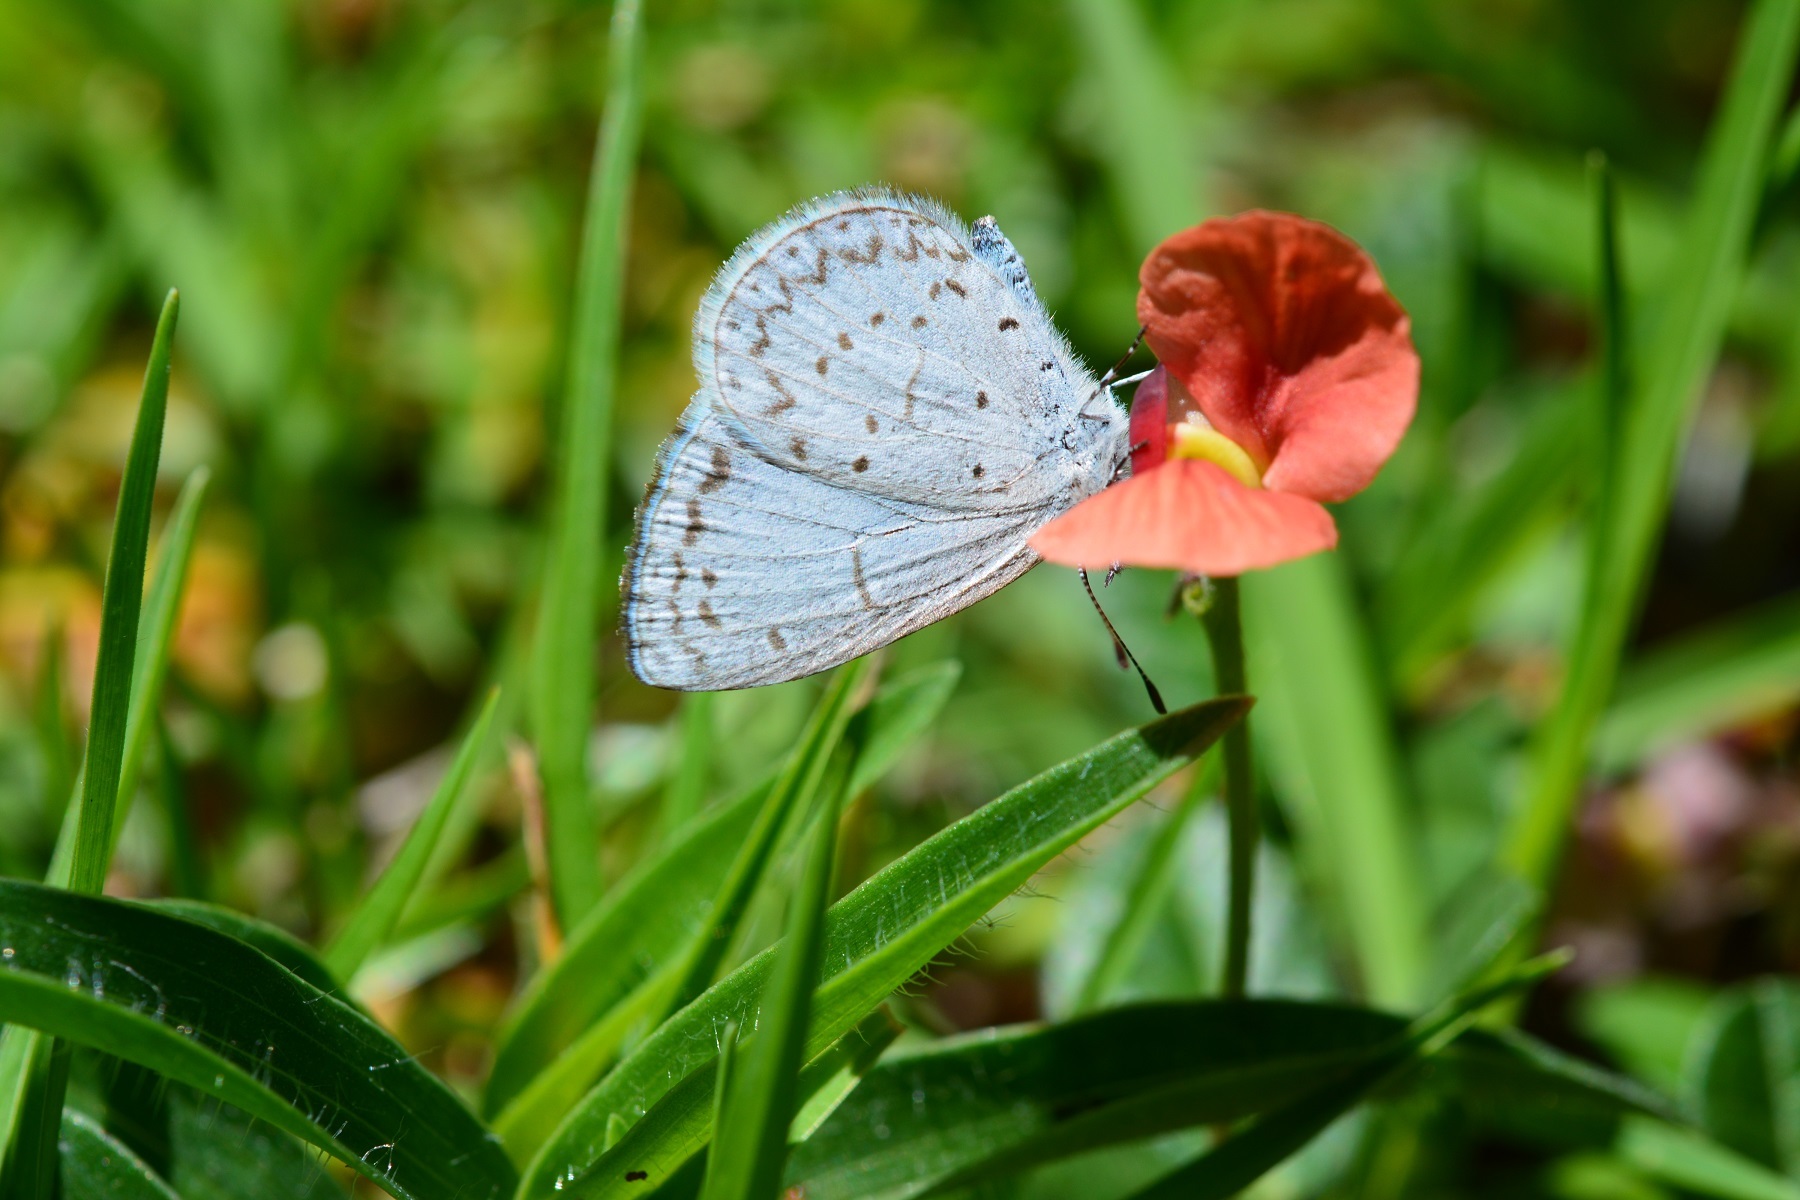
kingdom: Animalia
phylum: Arthropoda
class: Insecta
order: Lepidoptera
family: Lycaenidae
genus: Celastrina
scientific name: Celastrina ladon
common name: Spring azure
